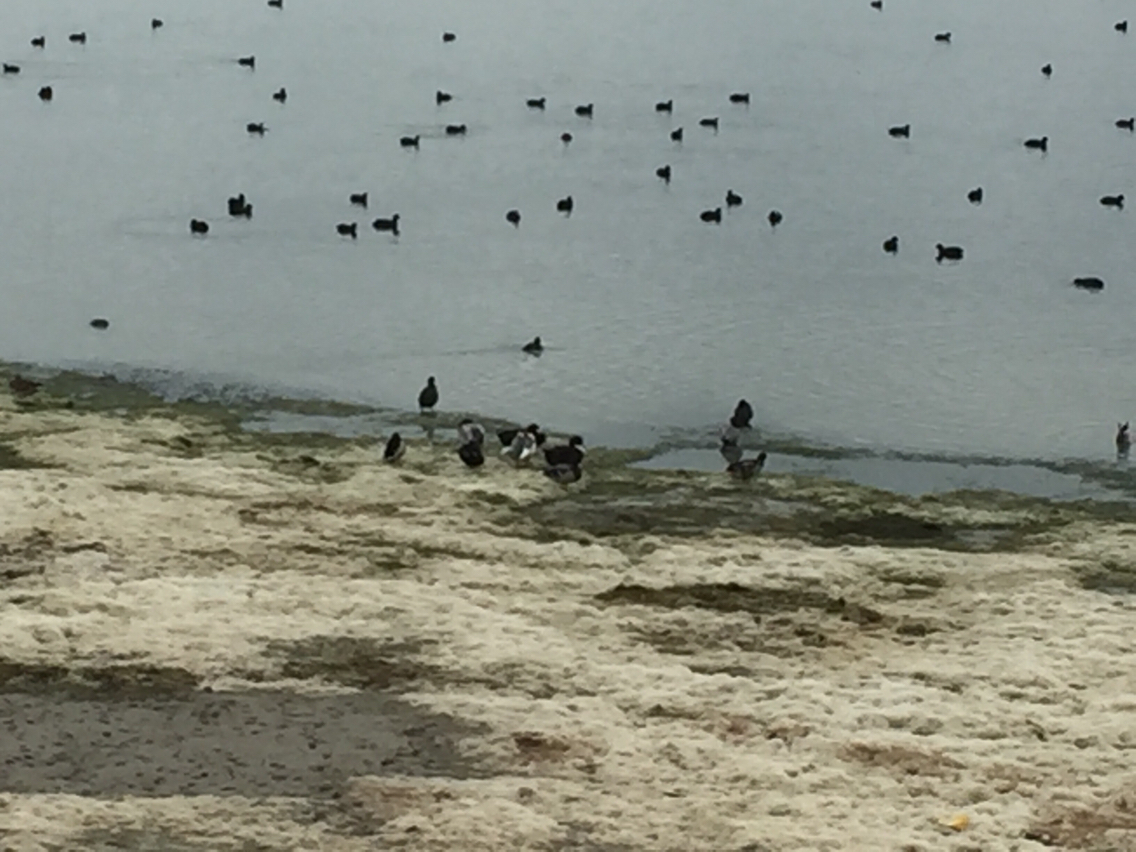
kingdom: Animalia
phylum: Chordata
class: Aves
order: Anseriformes
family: Anatidae
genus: Anas
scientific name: Anas platyrhynchos
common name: Mallard
